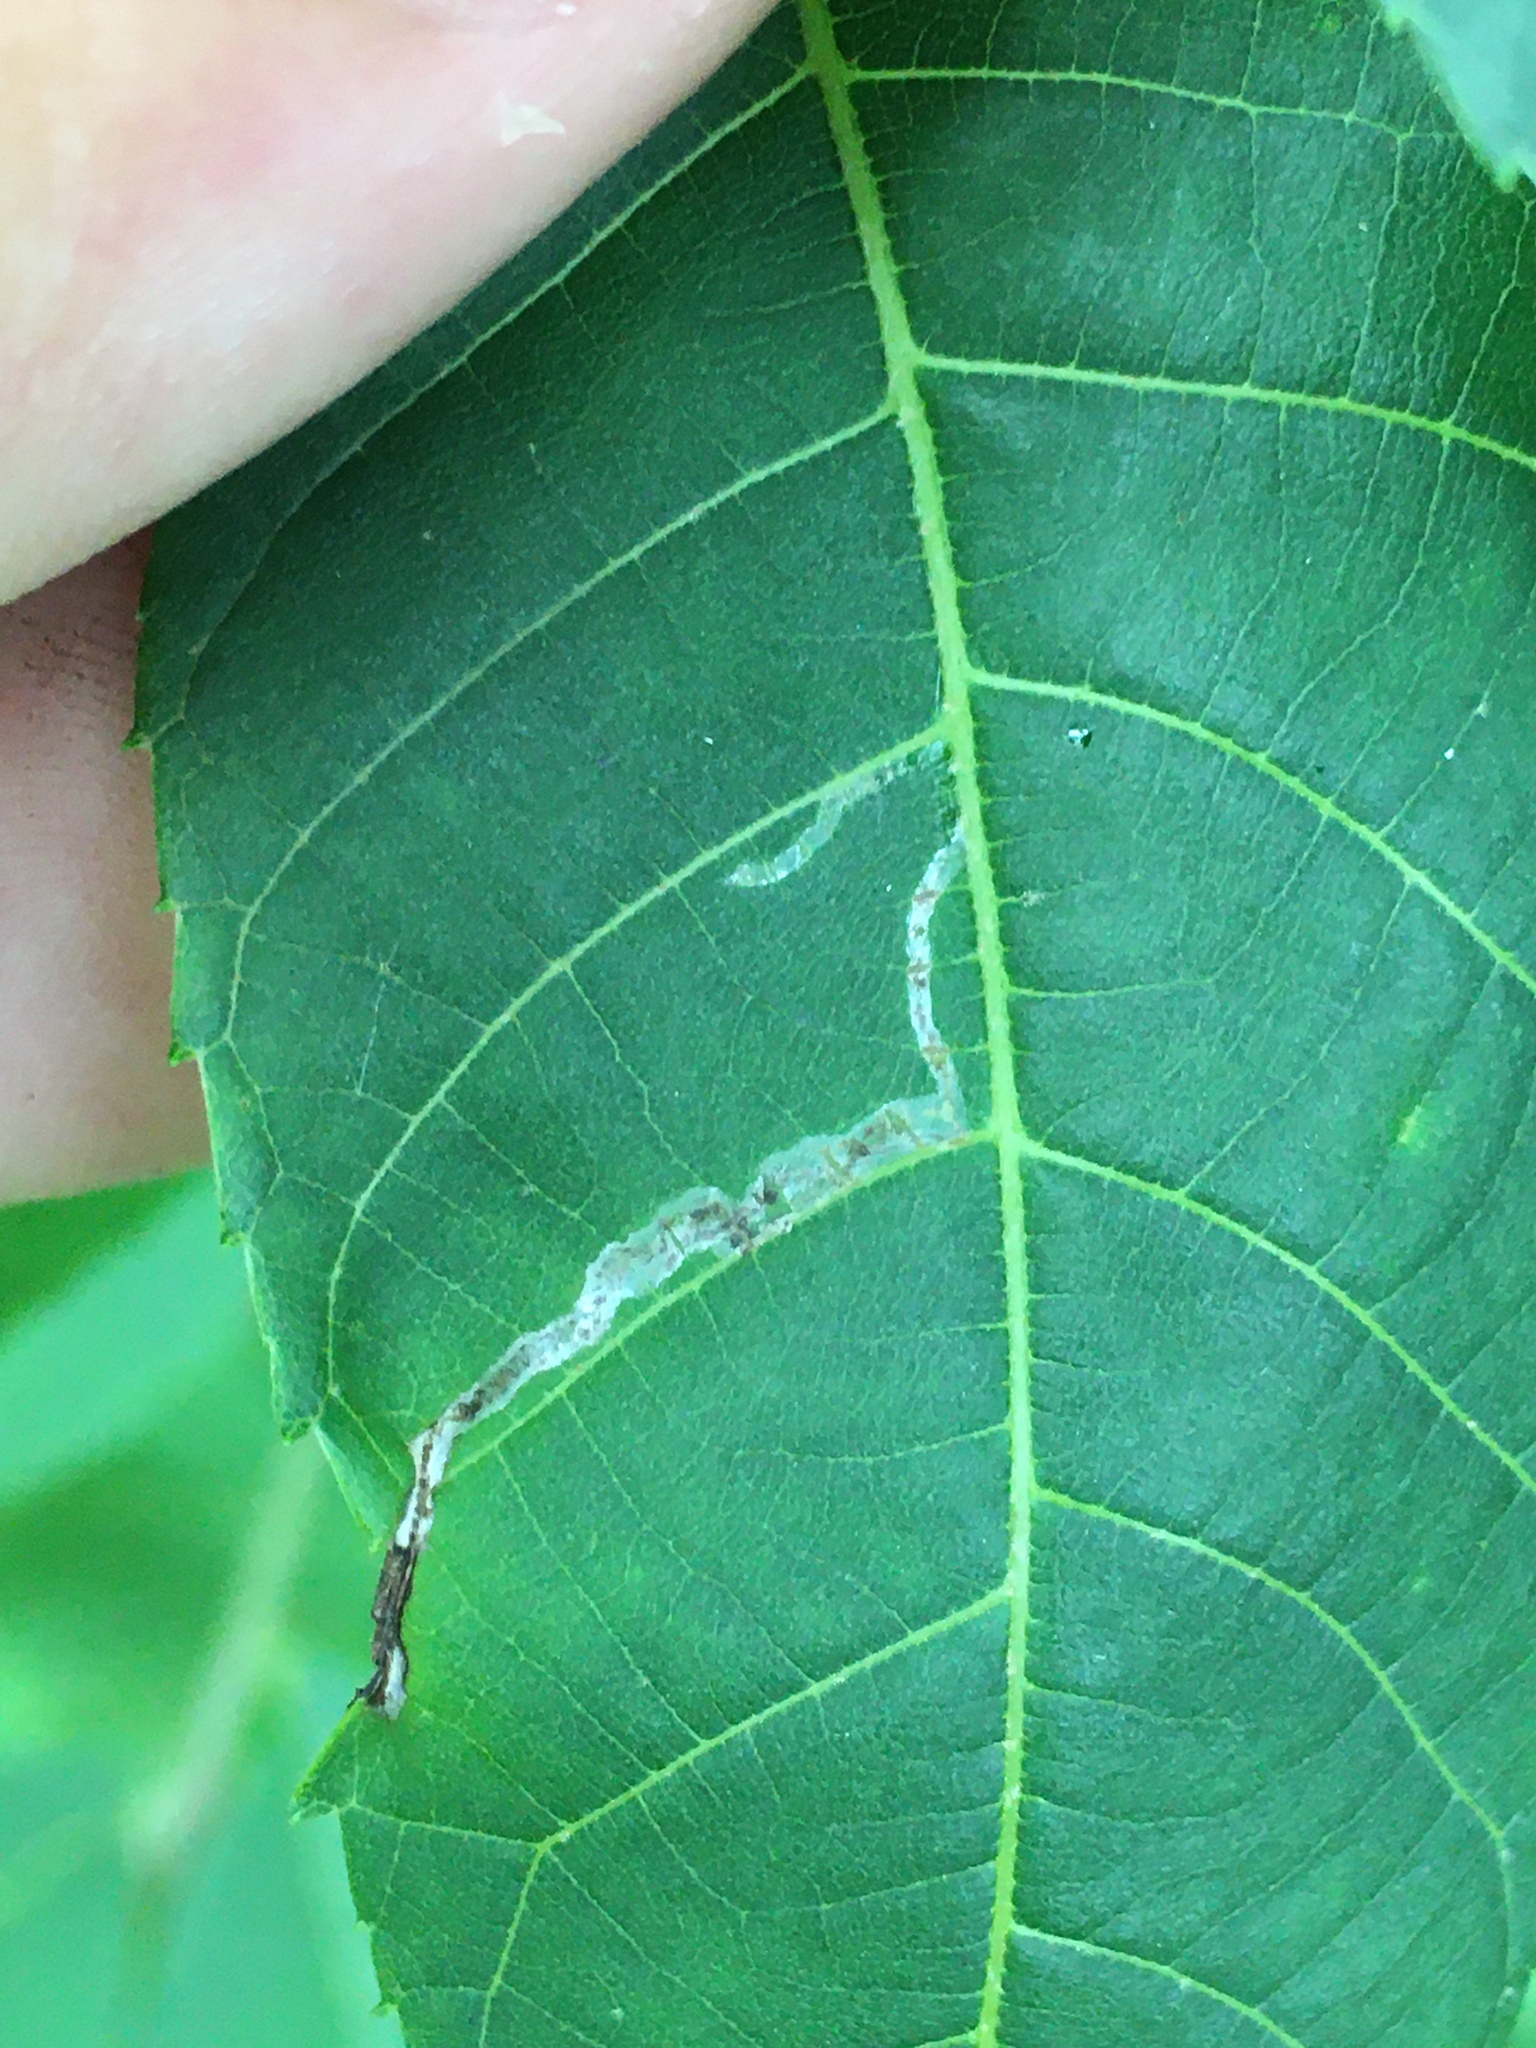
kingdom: Animalia
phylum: Arthropoda
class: Insecta
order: Lepidoptera
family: Gracillariidae
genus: Caloptilia
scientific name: Caloptilia blandella
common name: Walnut caloptilia moth
